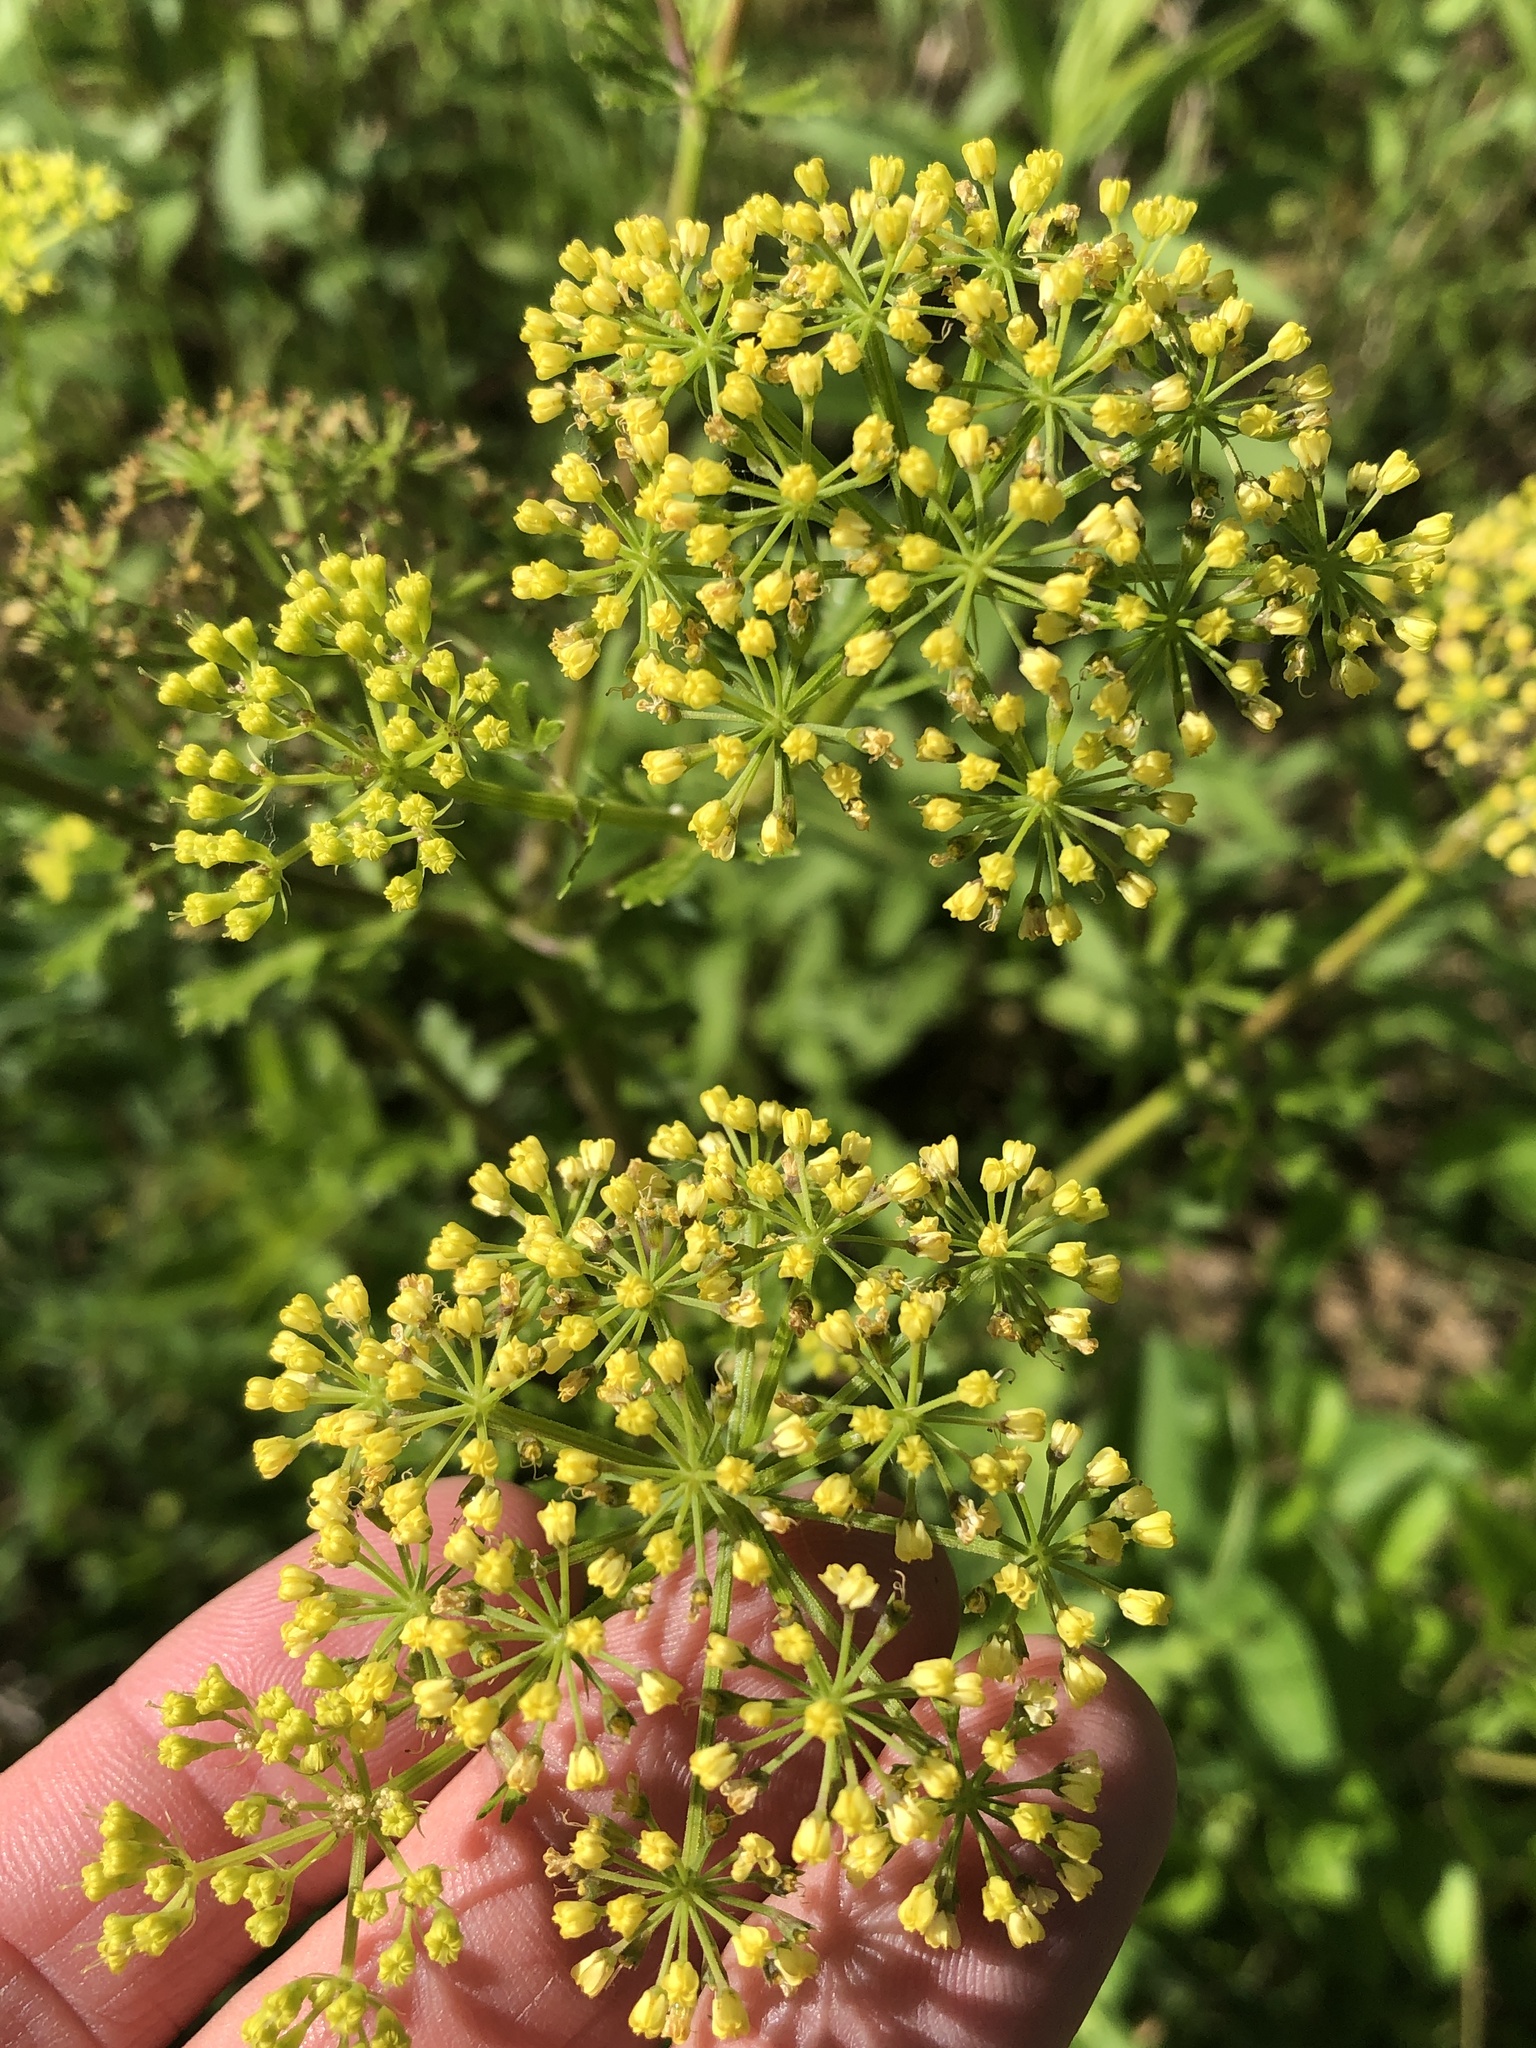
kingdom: Plantae
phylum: Tracheophyta
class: Magnoliopsida
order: Apiales
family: Apiaceae
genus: Polytaenia
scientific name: Polytaenia texana
